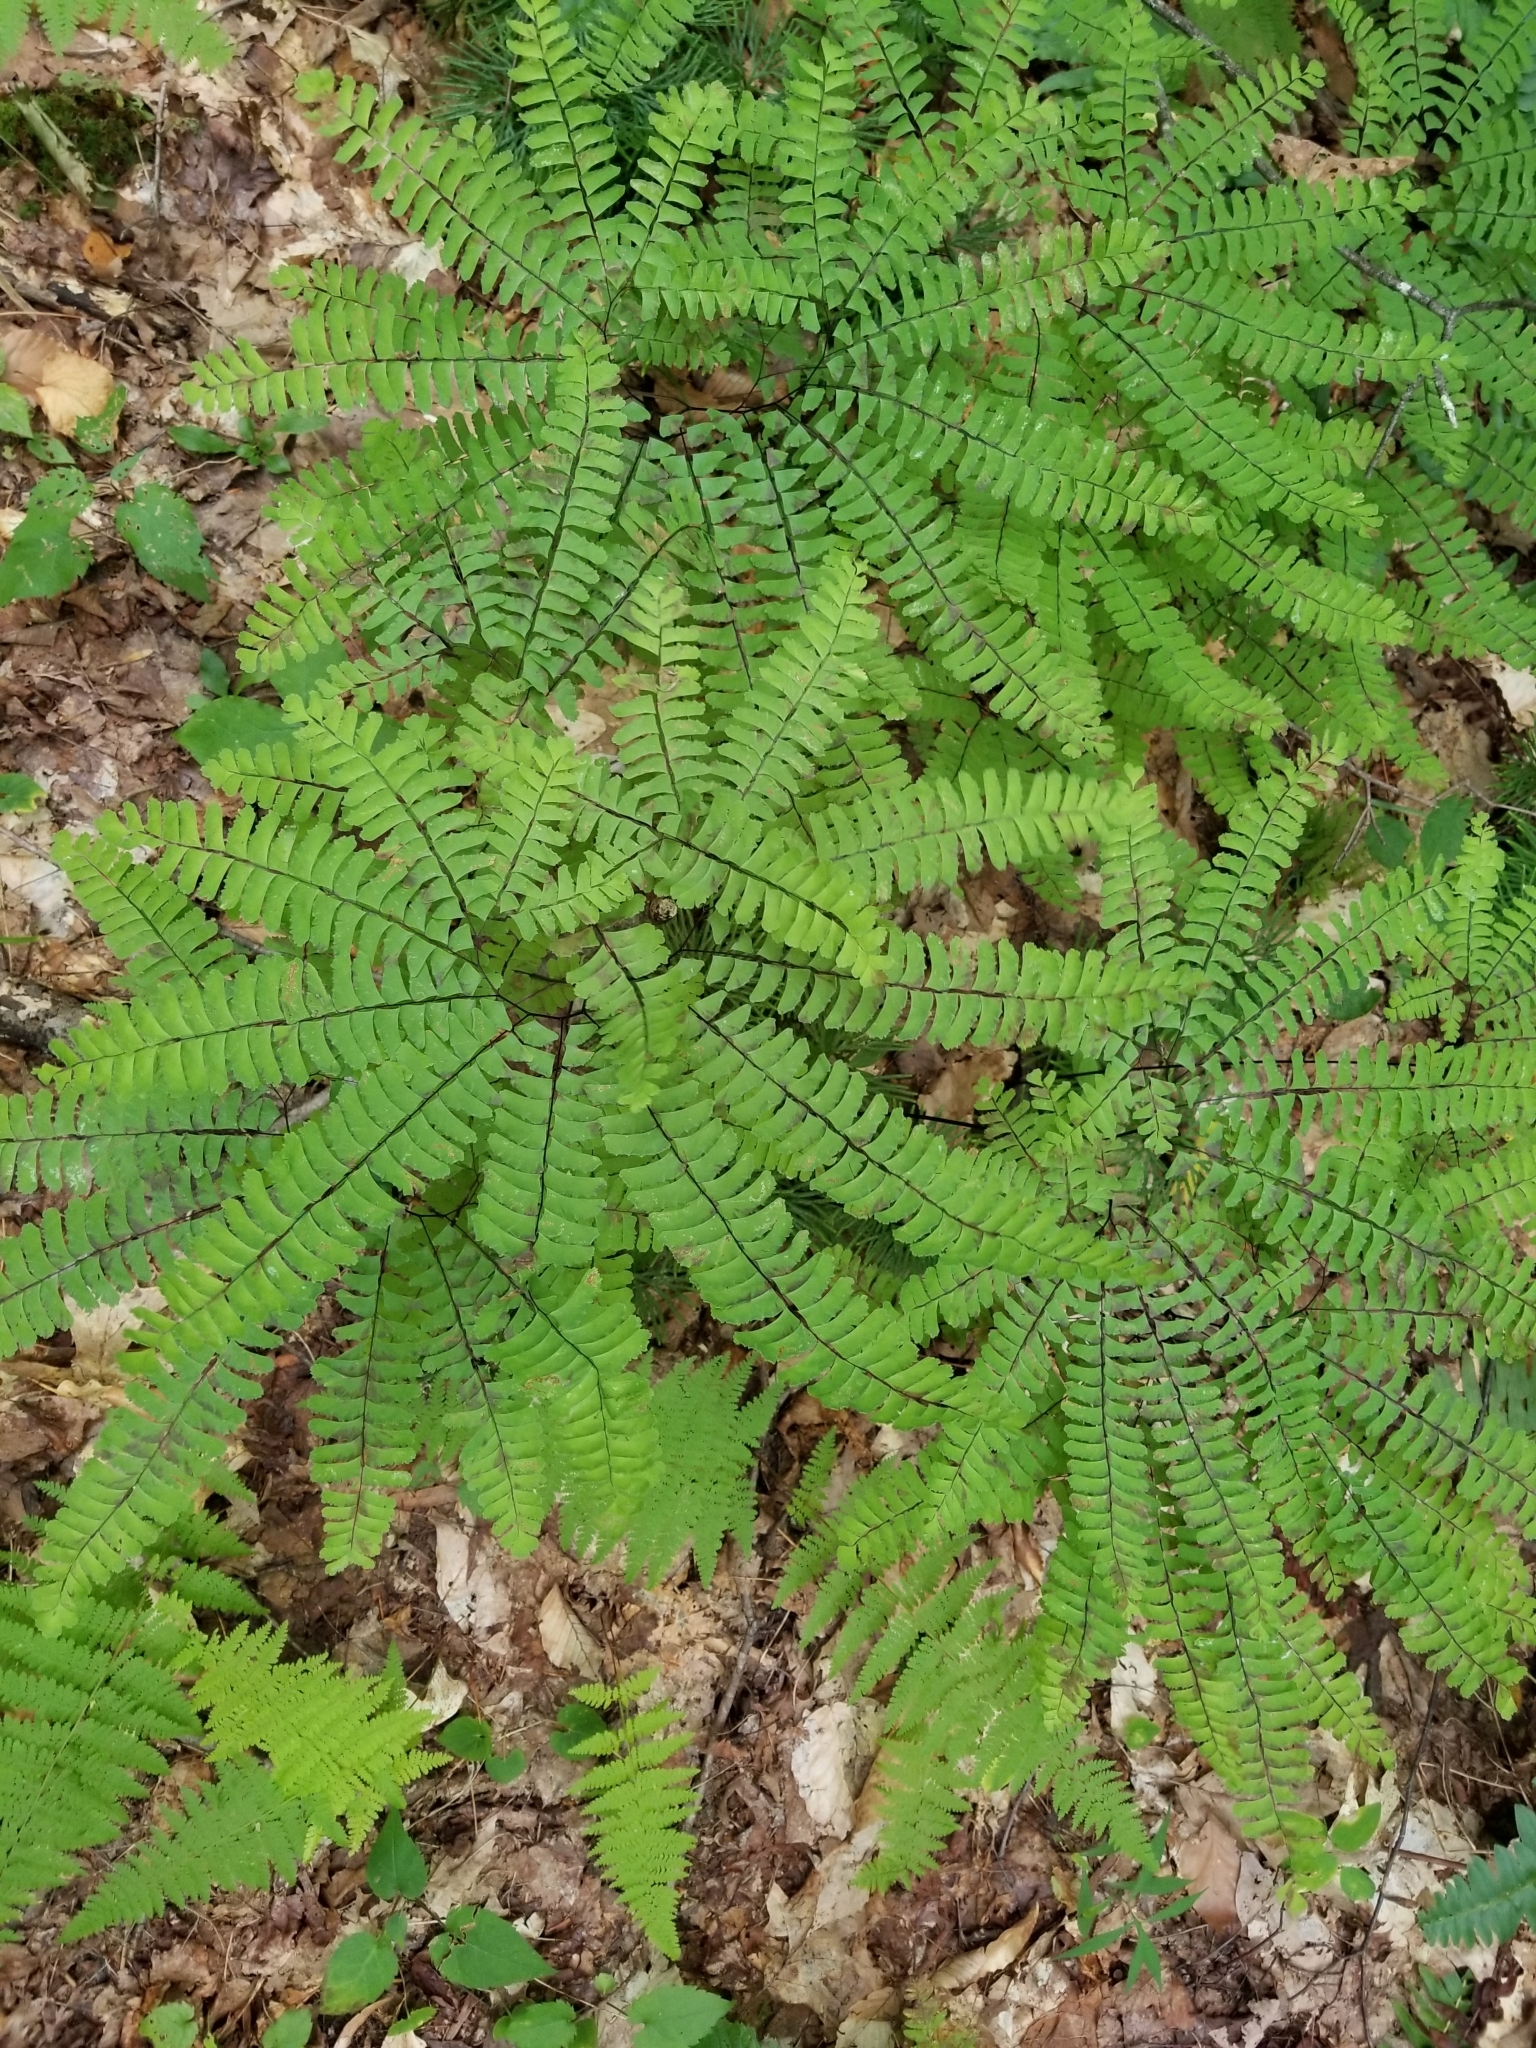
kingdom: Plantae
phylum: Tracheophyta
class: Polypodiopsida
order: Polypodiales
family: Pteridaceae
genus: Adiantum
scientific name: Adiantum pedatum
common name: Five-finger fern
